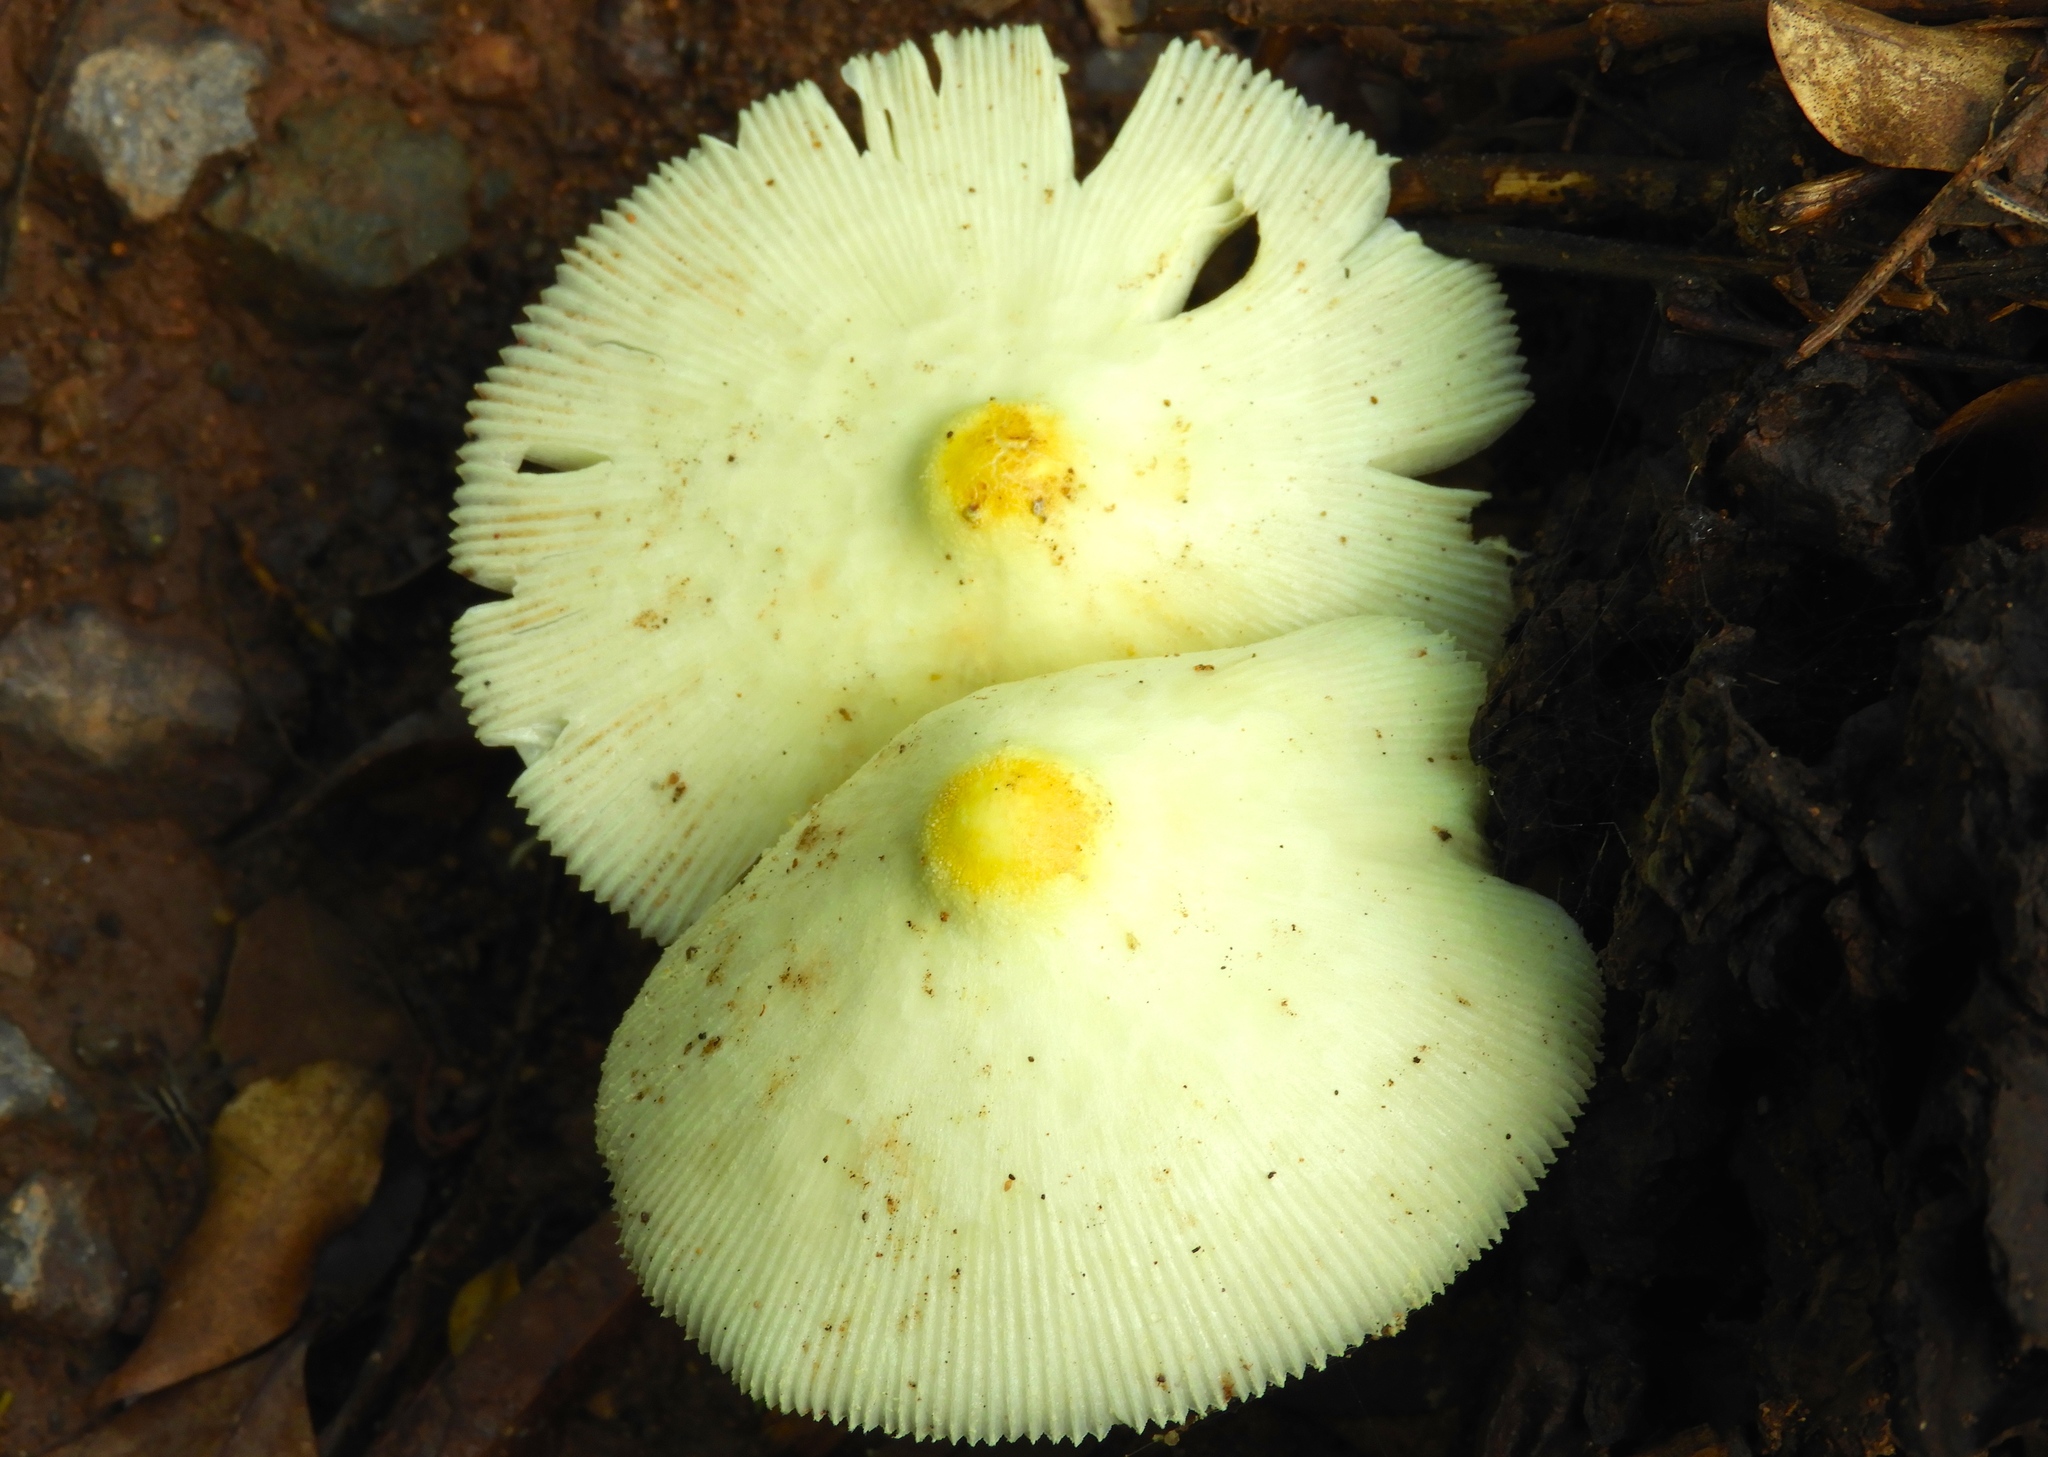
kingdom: Fungi
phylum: Basidiomycota
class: Agaricomycetes
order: Agaricales
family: Agaricaceae
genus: Leucocoprinus
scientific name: Leucocoprinus
